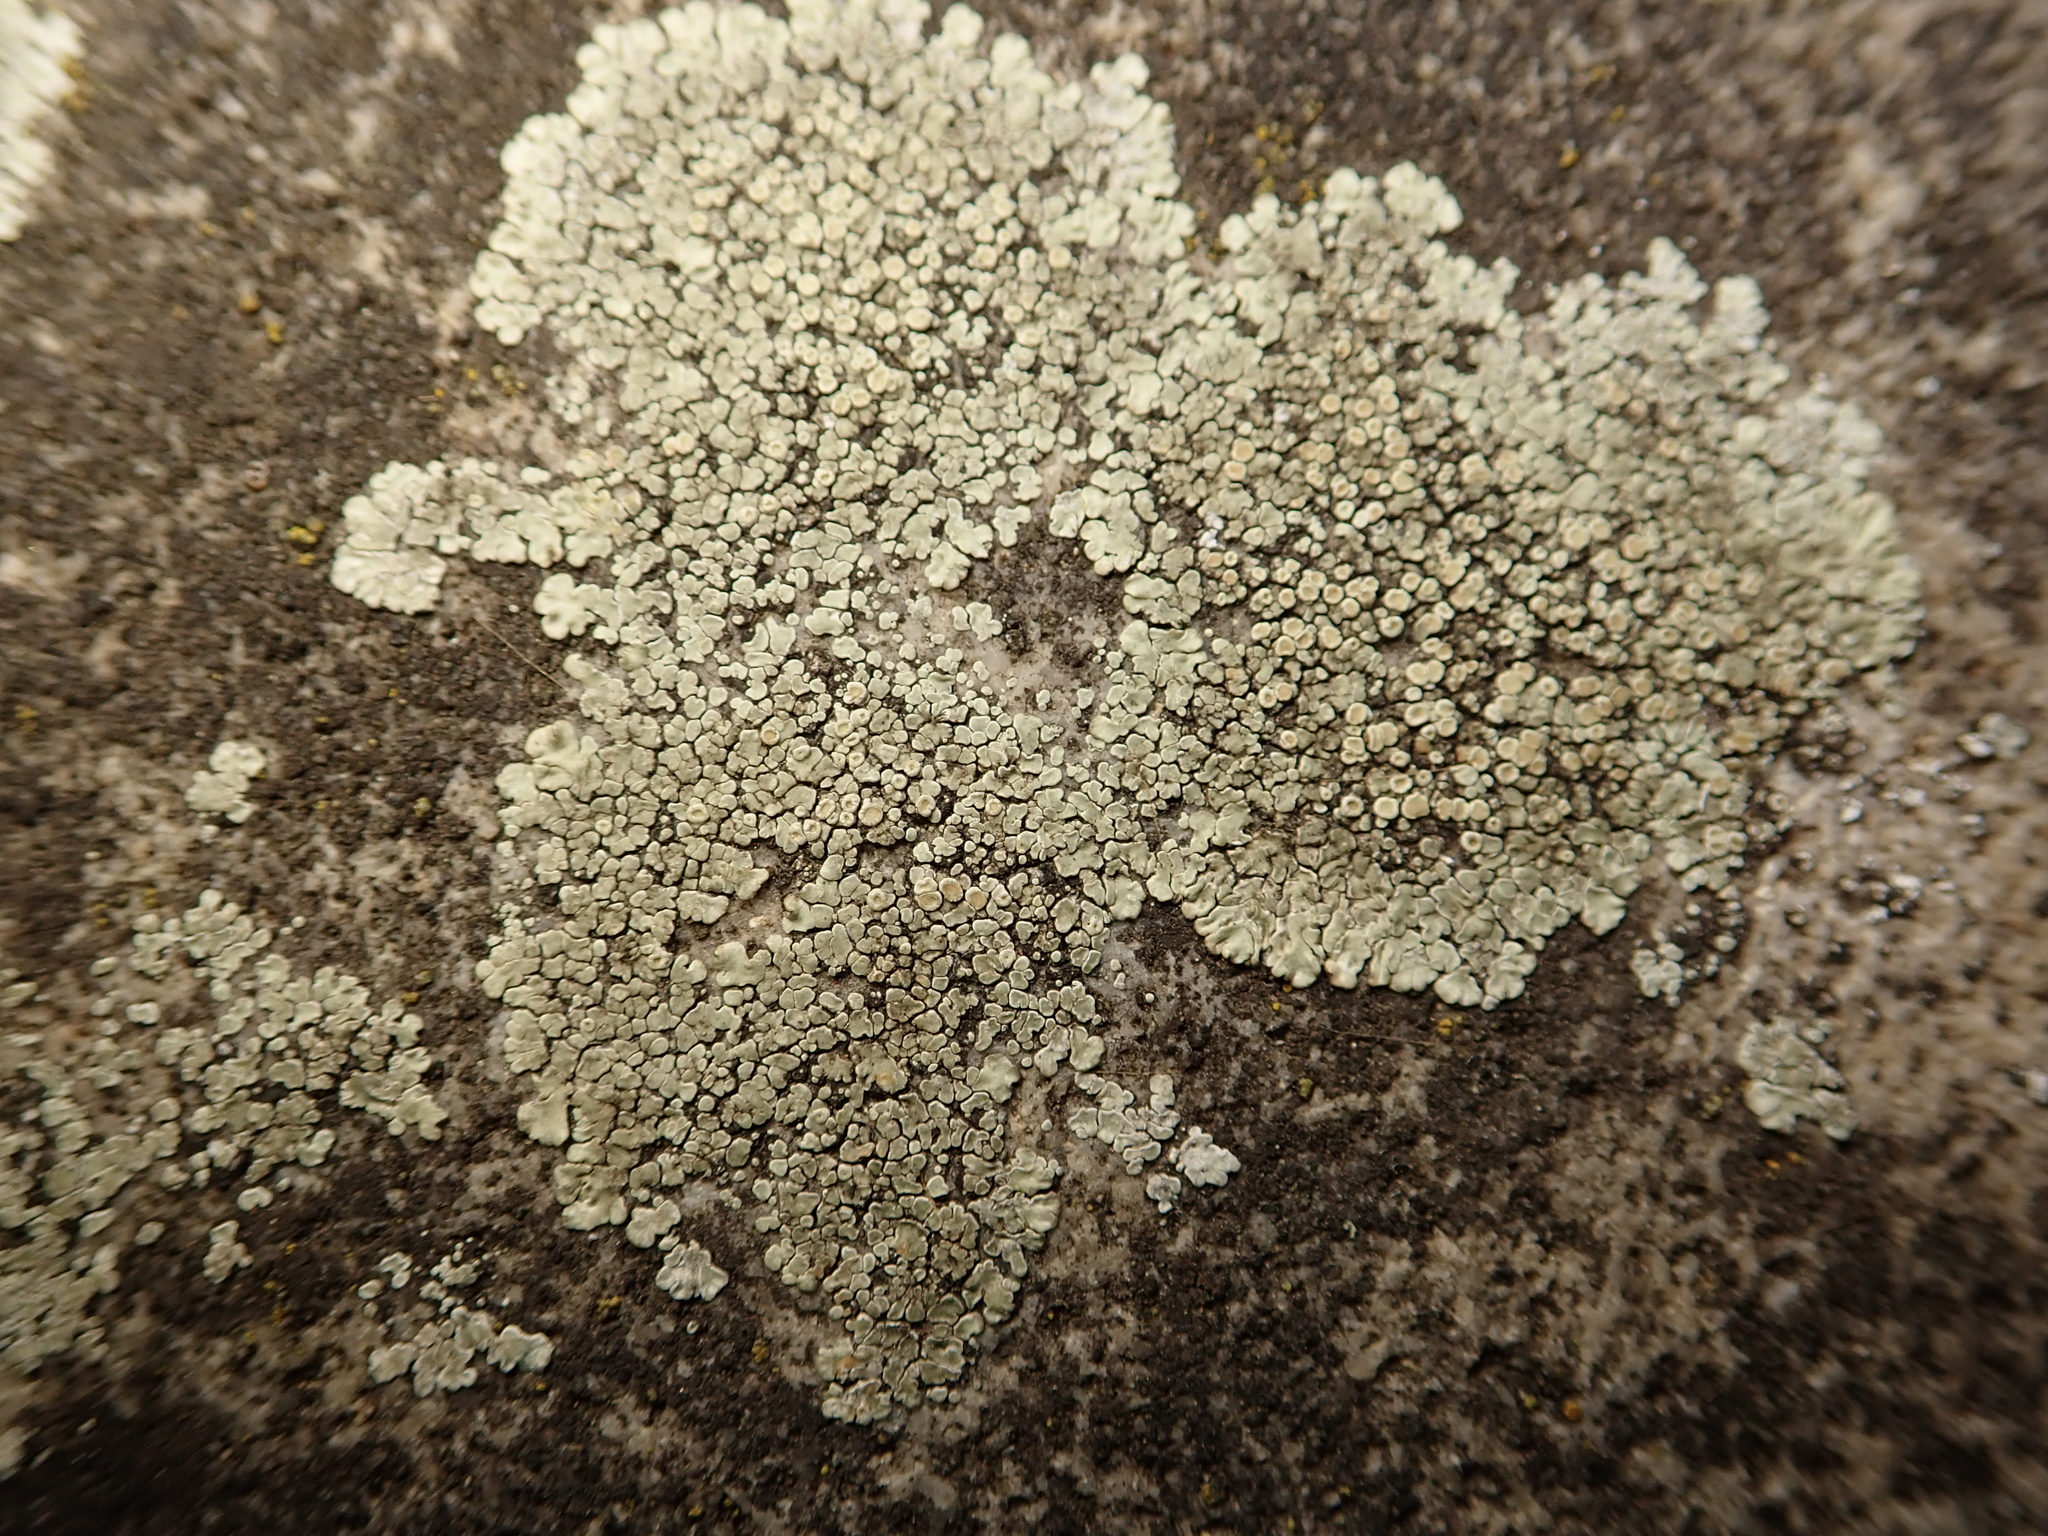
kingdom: Fungi
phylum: Ascomycota
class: Lecanoromycetes
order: Lecanorales
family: Lecanoraceae
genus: Protoparmeliopsis
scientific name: Protoparmeliopsis muralis
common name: Stonewall rim lichen
